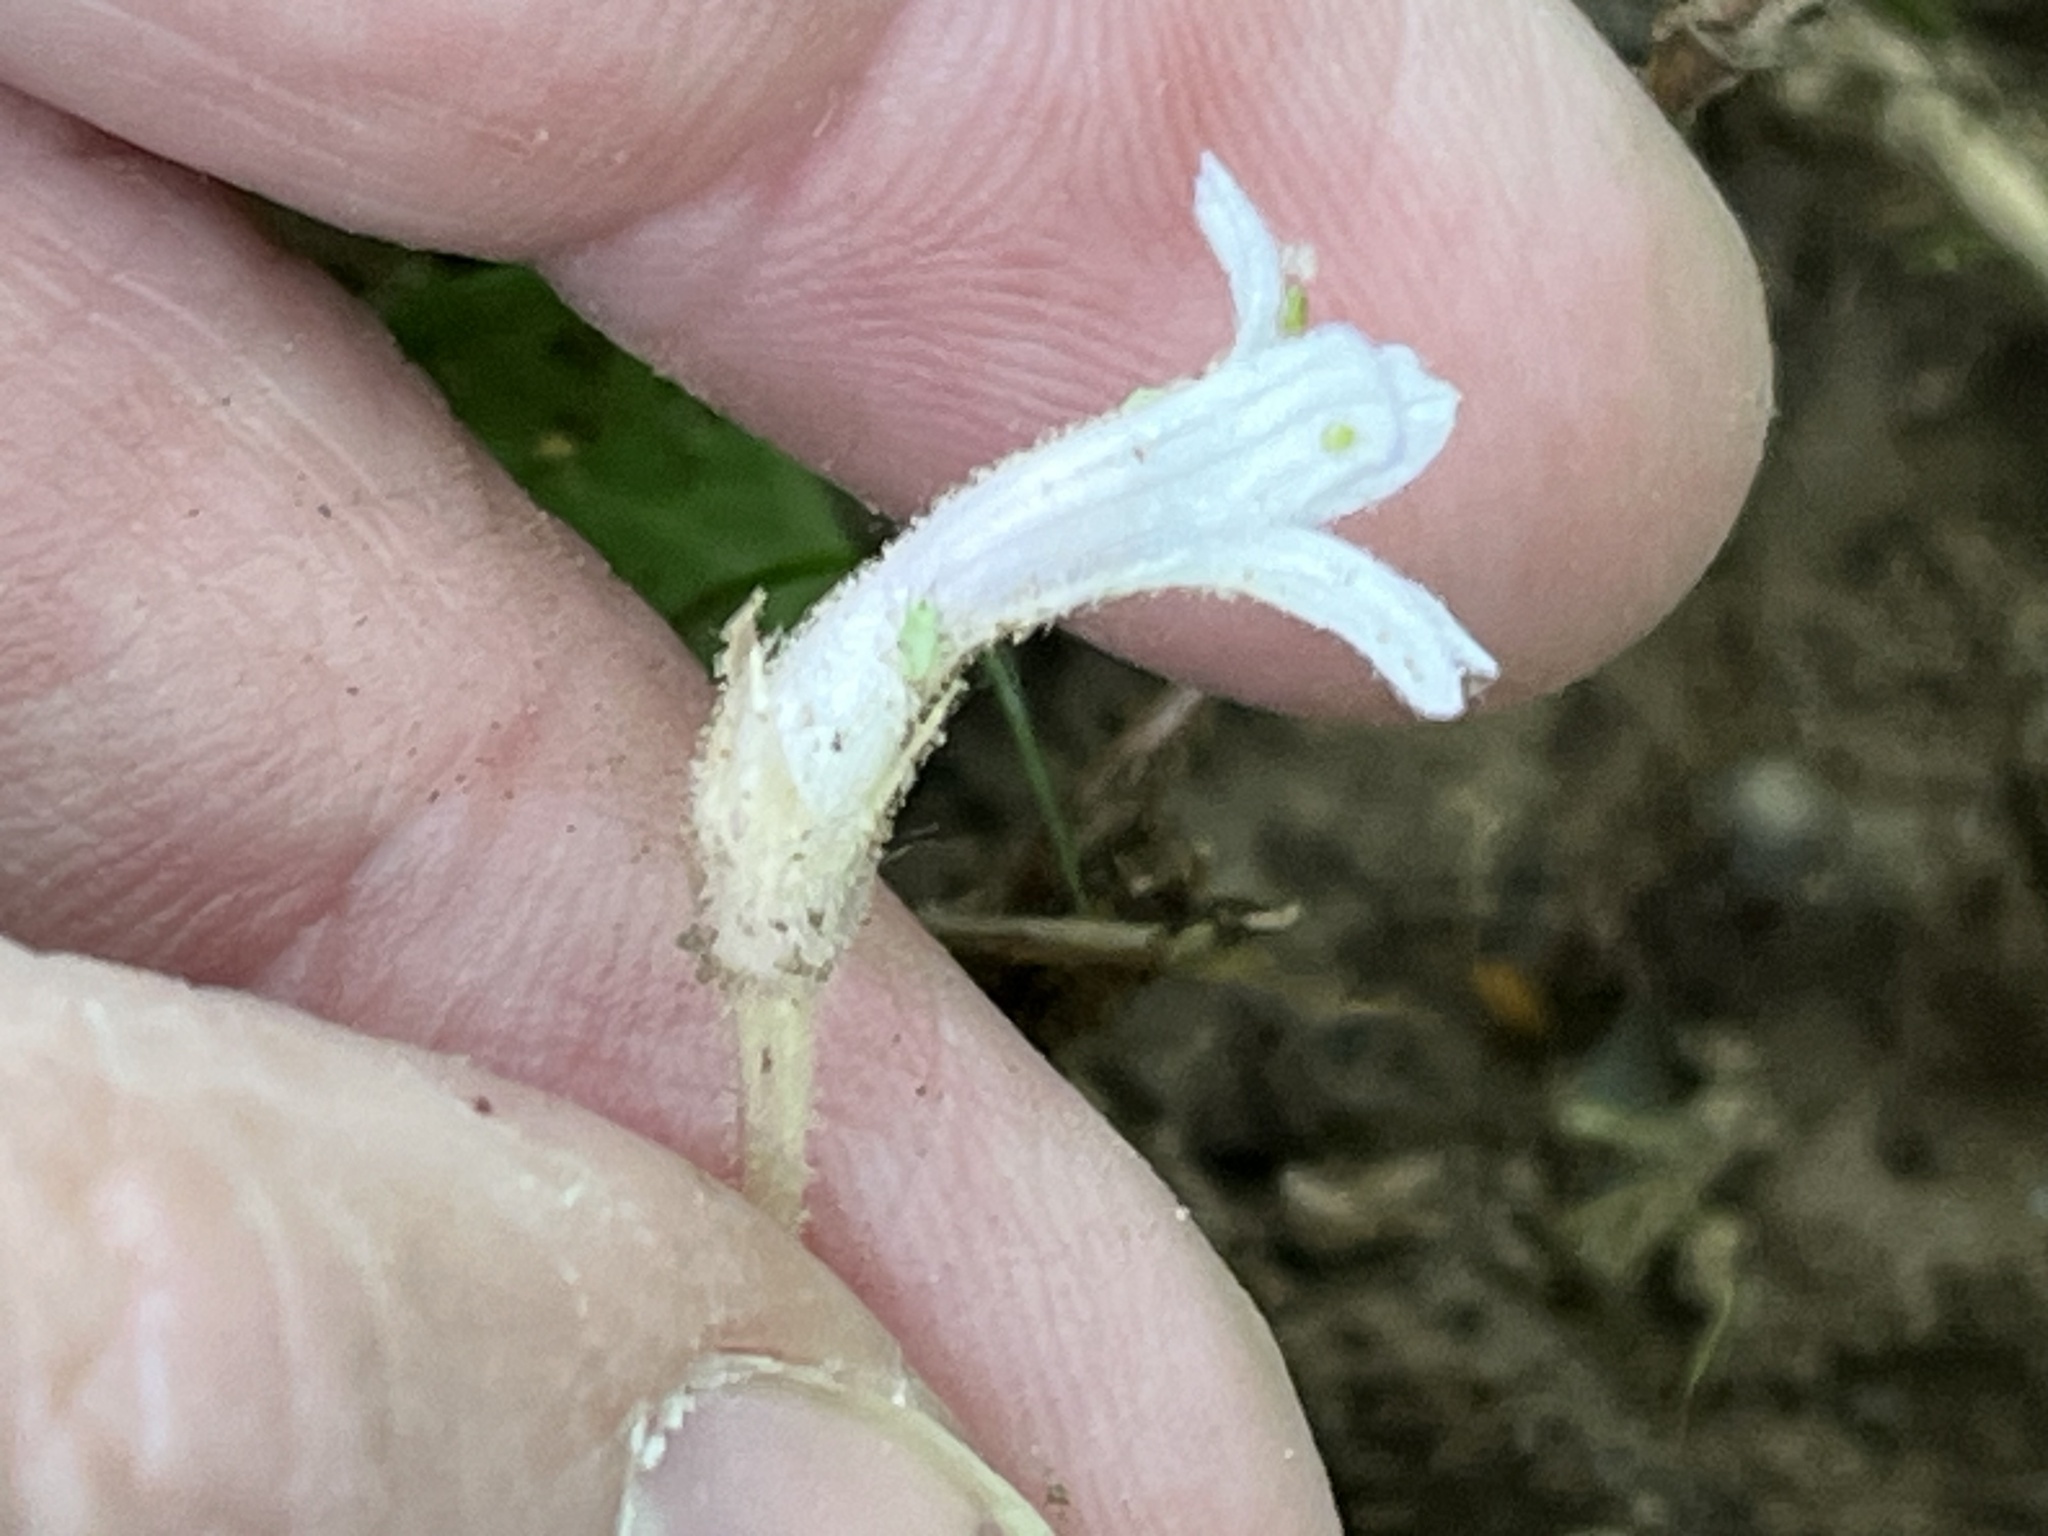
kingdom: Plantae
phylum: Tracheophyta
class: Magnoliopsida
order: Lamiales
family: Orobanchaceae
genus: Aphyllon
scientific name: Aphyllon uniflorum
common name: One-flowered broomrape
